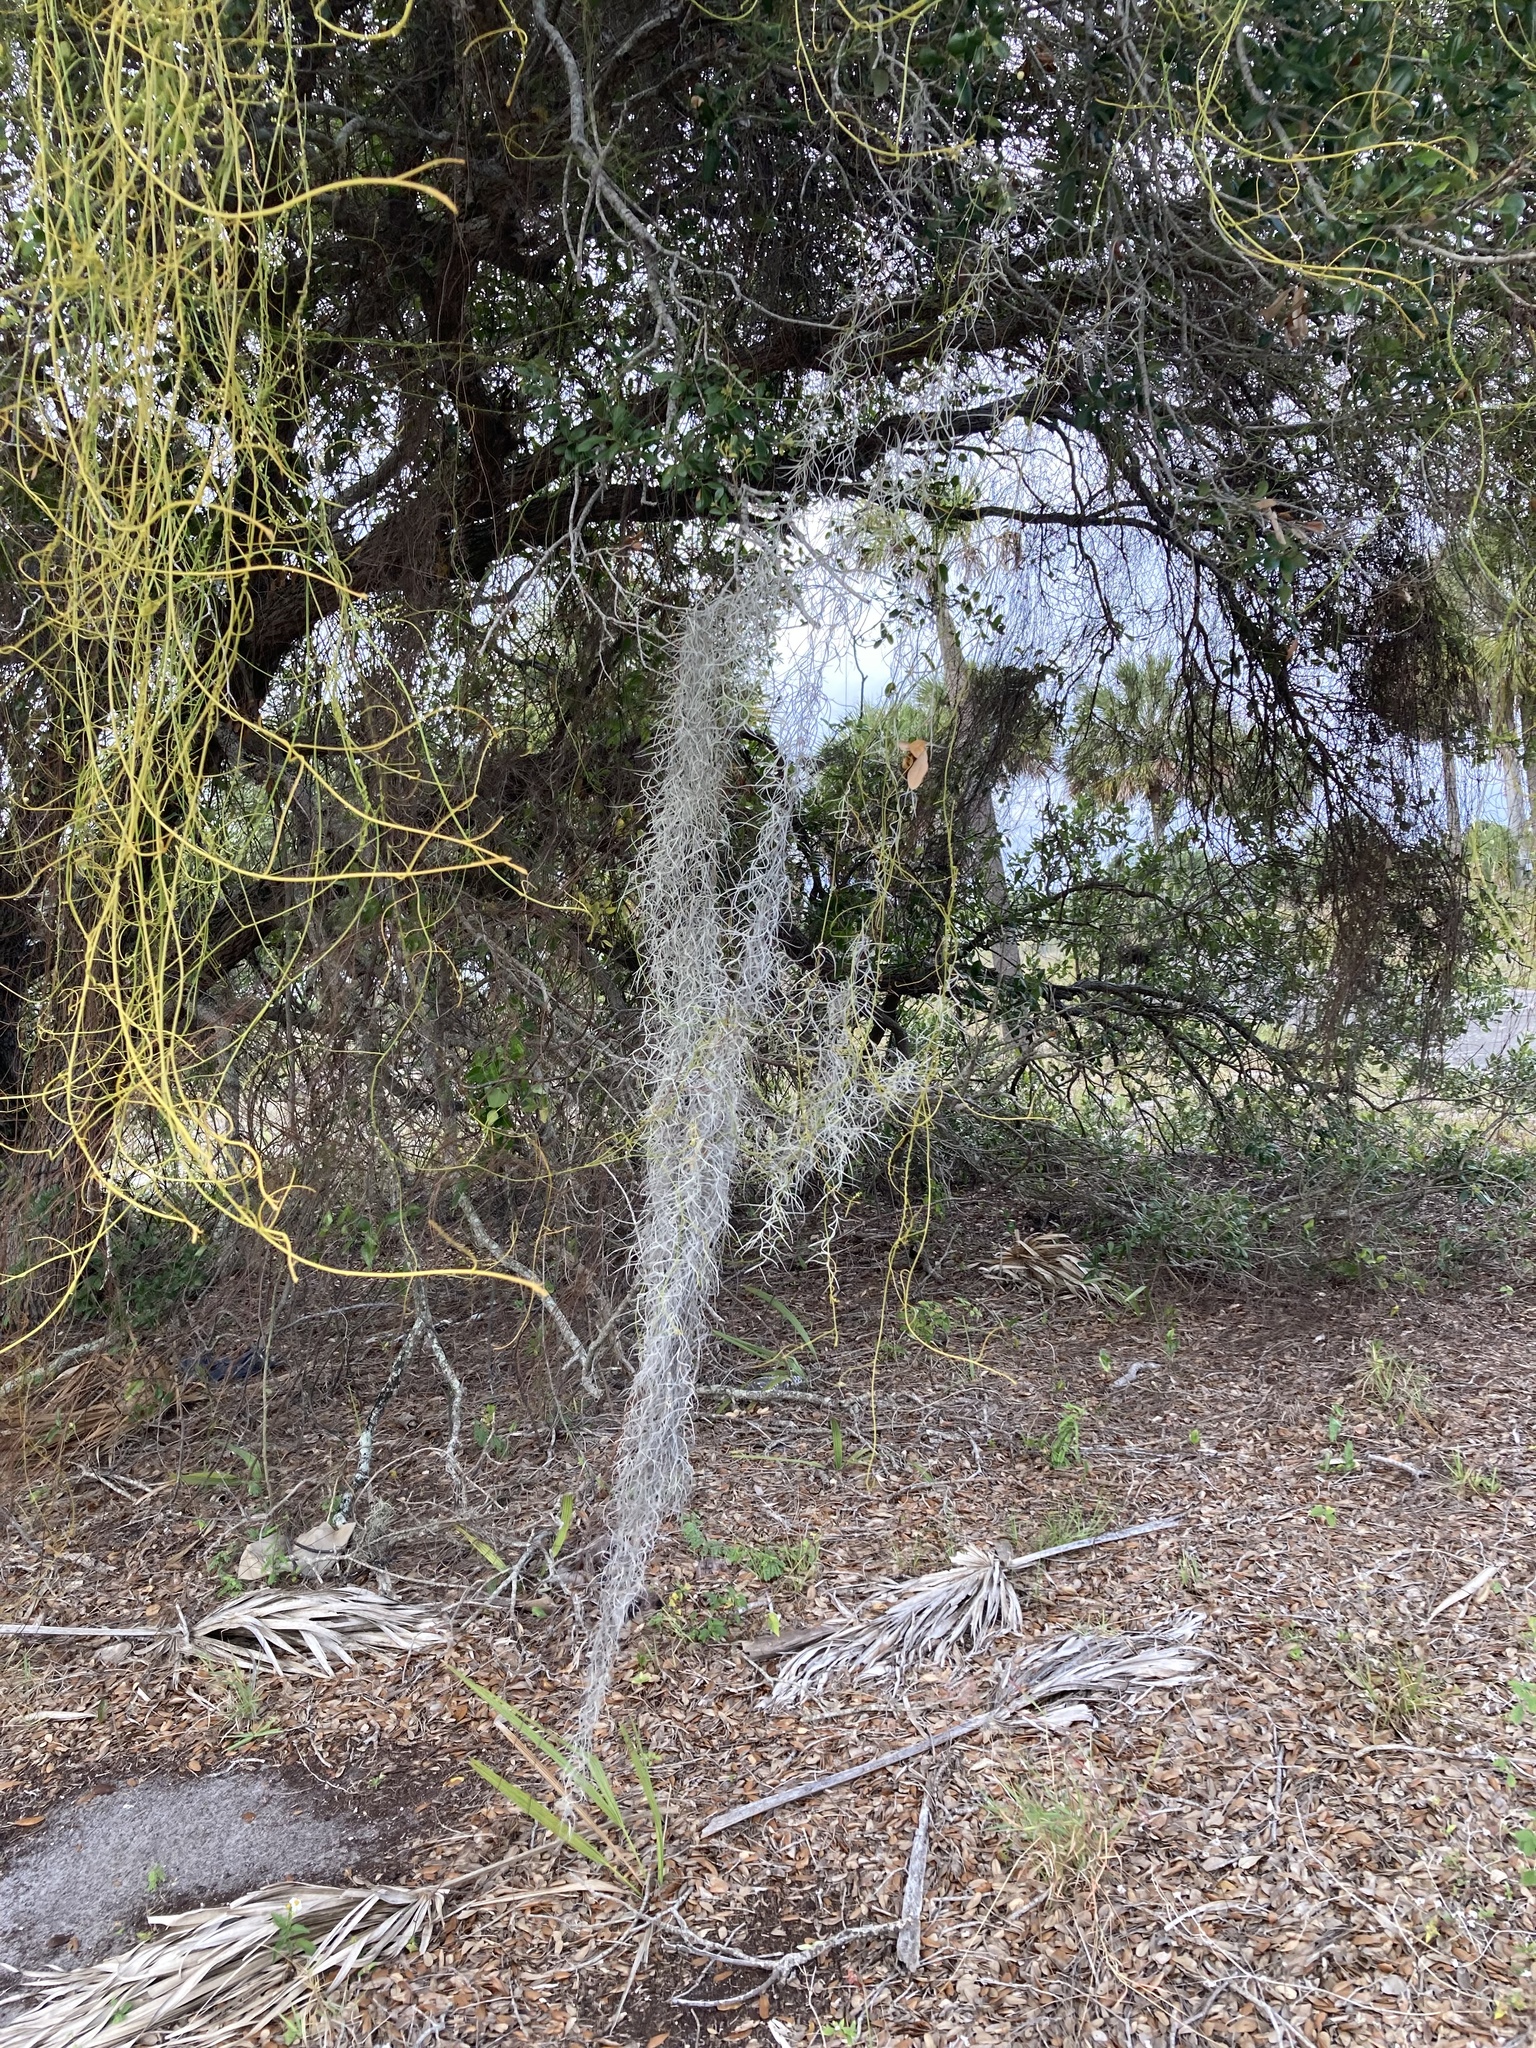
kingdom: Plantae
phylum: Tracheophyta
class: Liliopsida
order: Poales
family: Bromeliaceae
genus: Tillandsia
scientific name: Tillandsia usneoides
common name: Spanish moss
